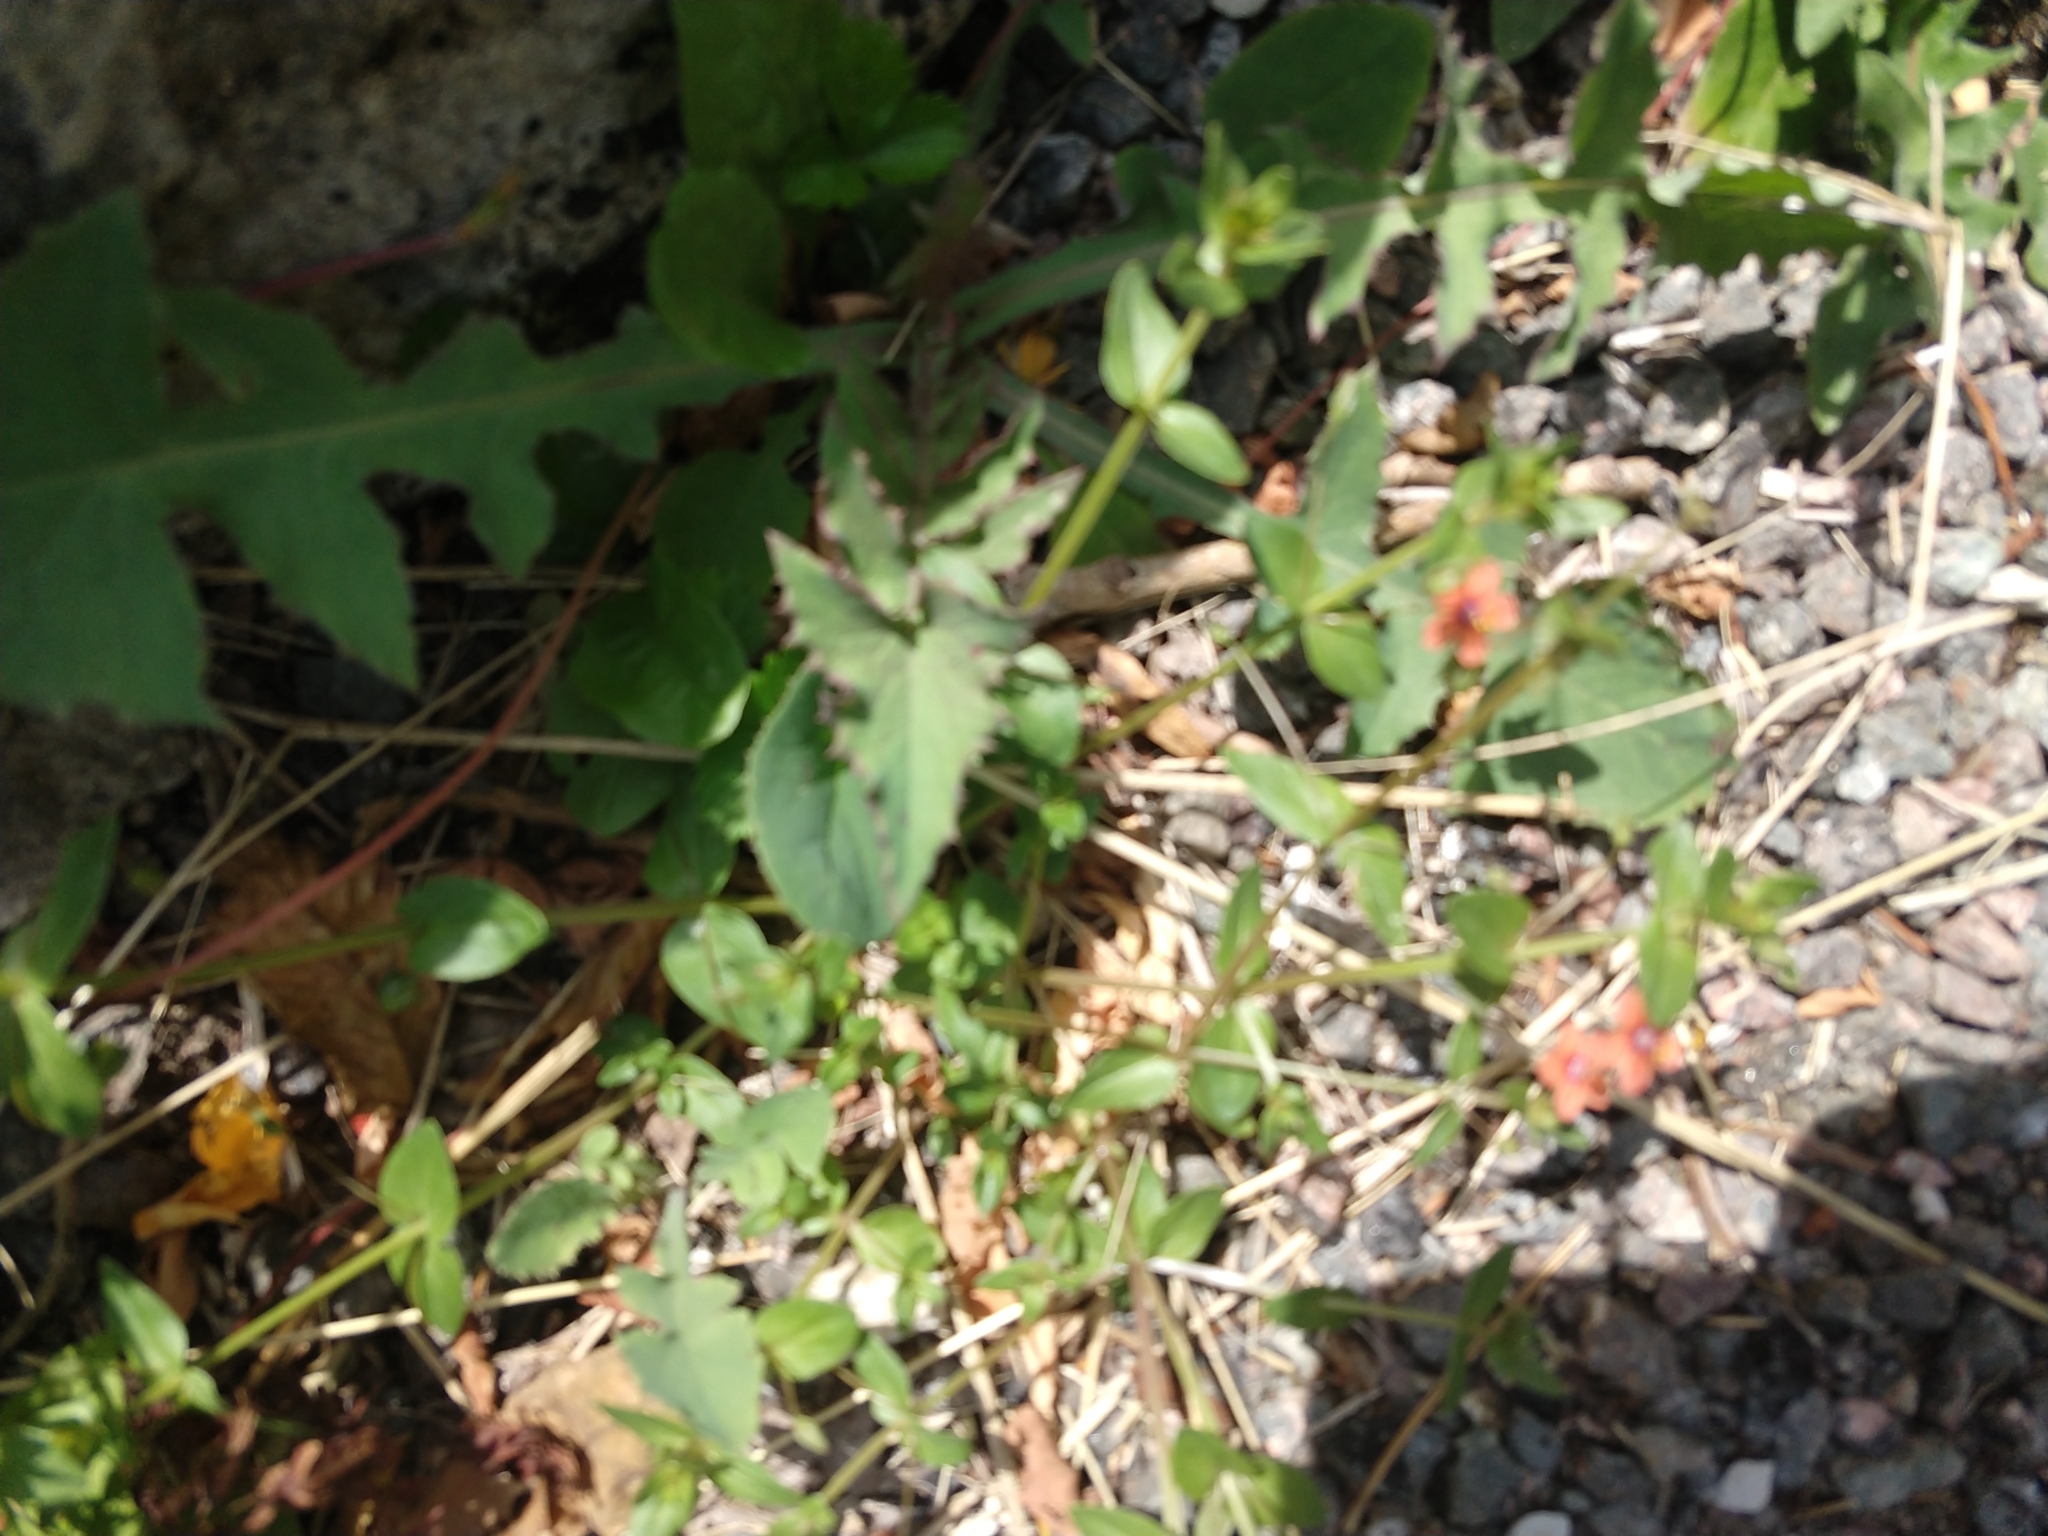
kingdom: Plantae
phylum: Tracheophyta
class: Magnoliopsida
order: Ericales
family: Primulaceae
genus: Lysimachia
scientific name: Lysimachia arvensis
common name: Scarlet pimpernel
